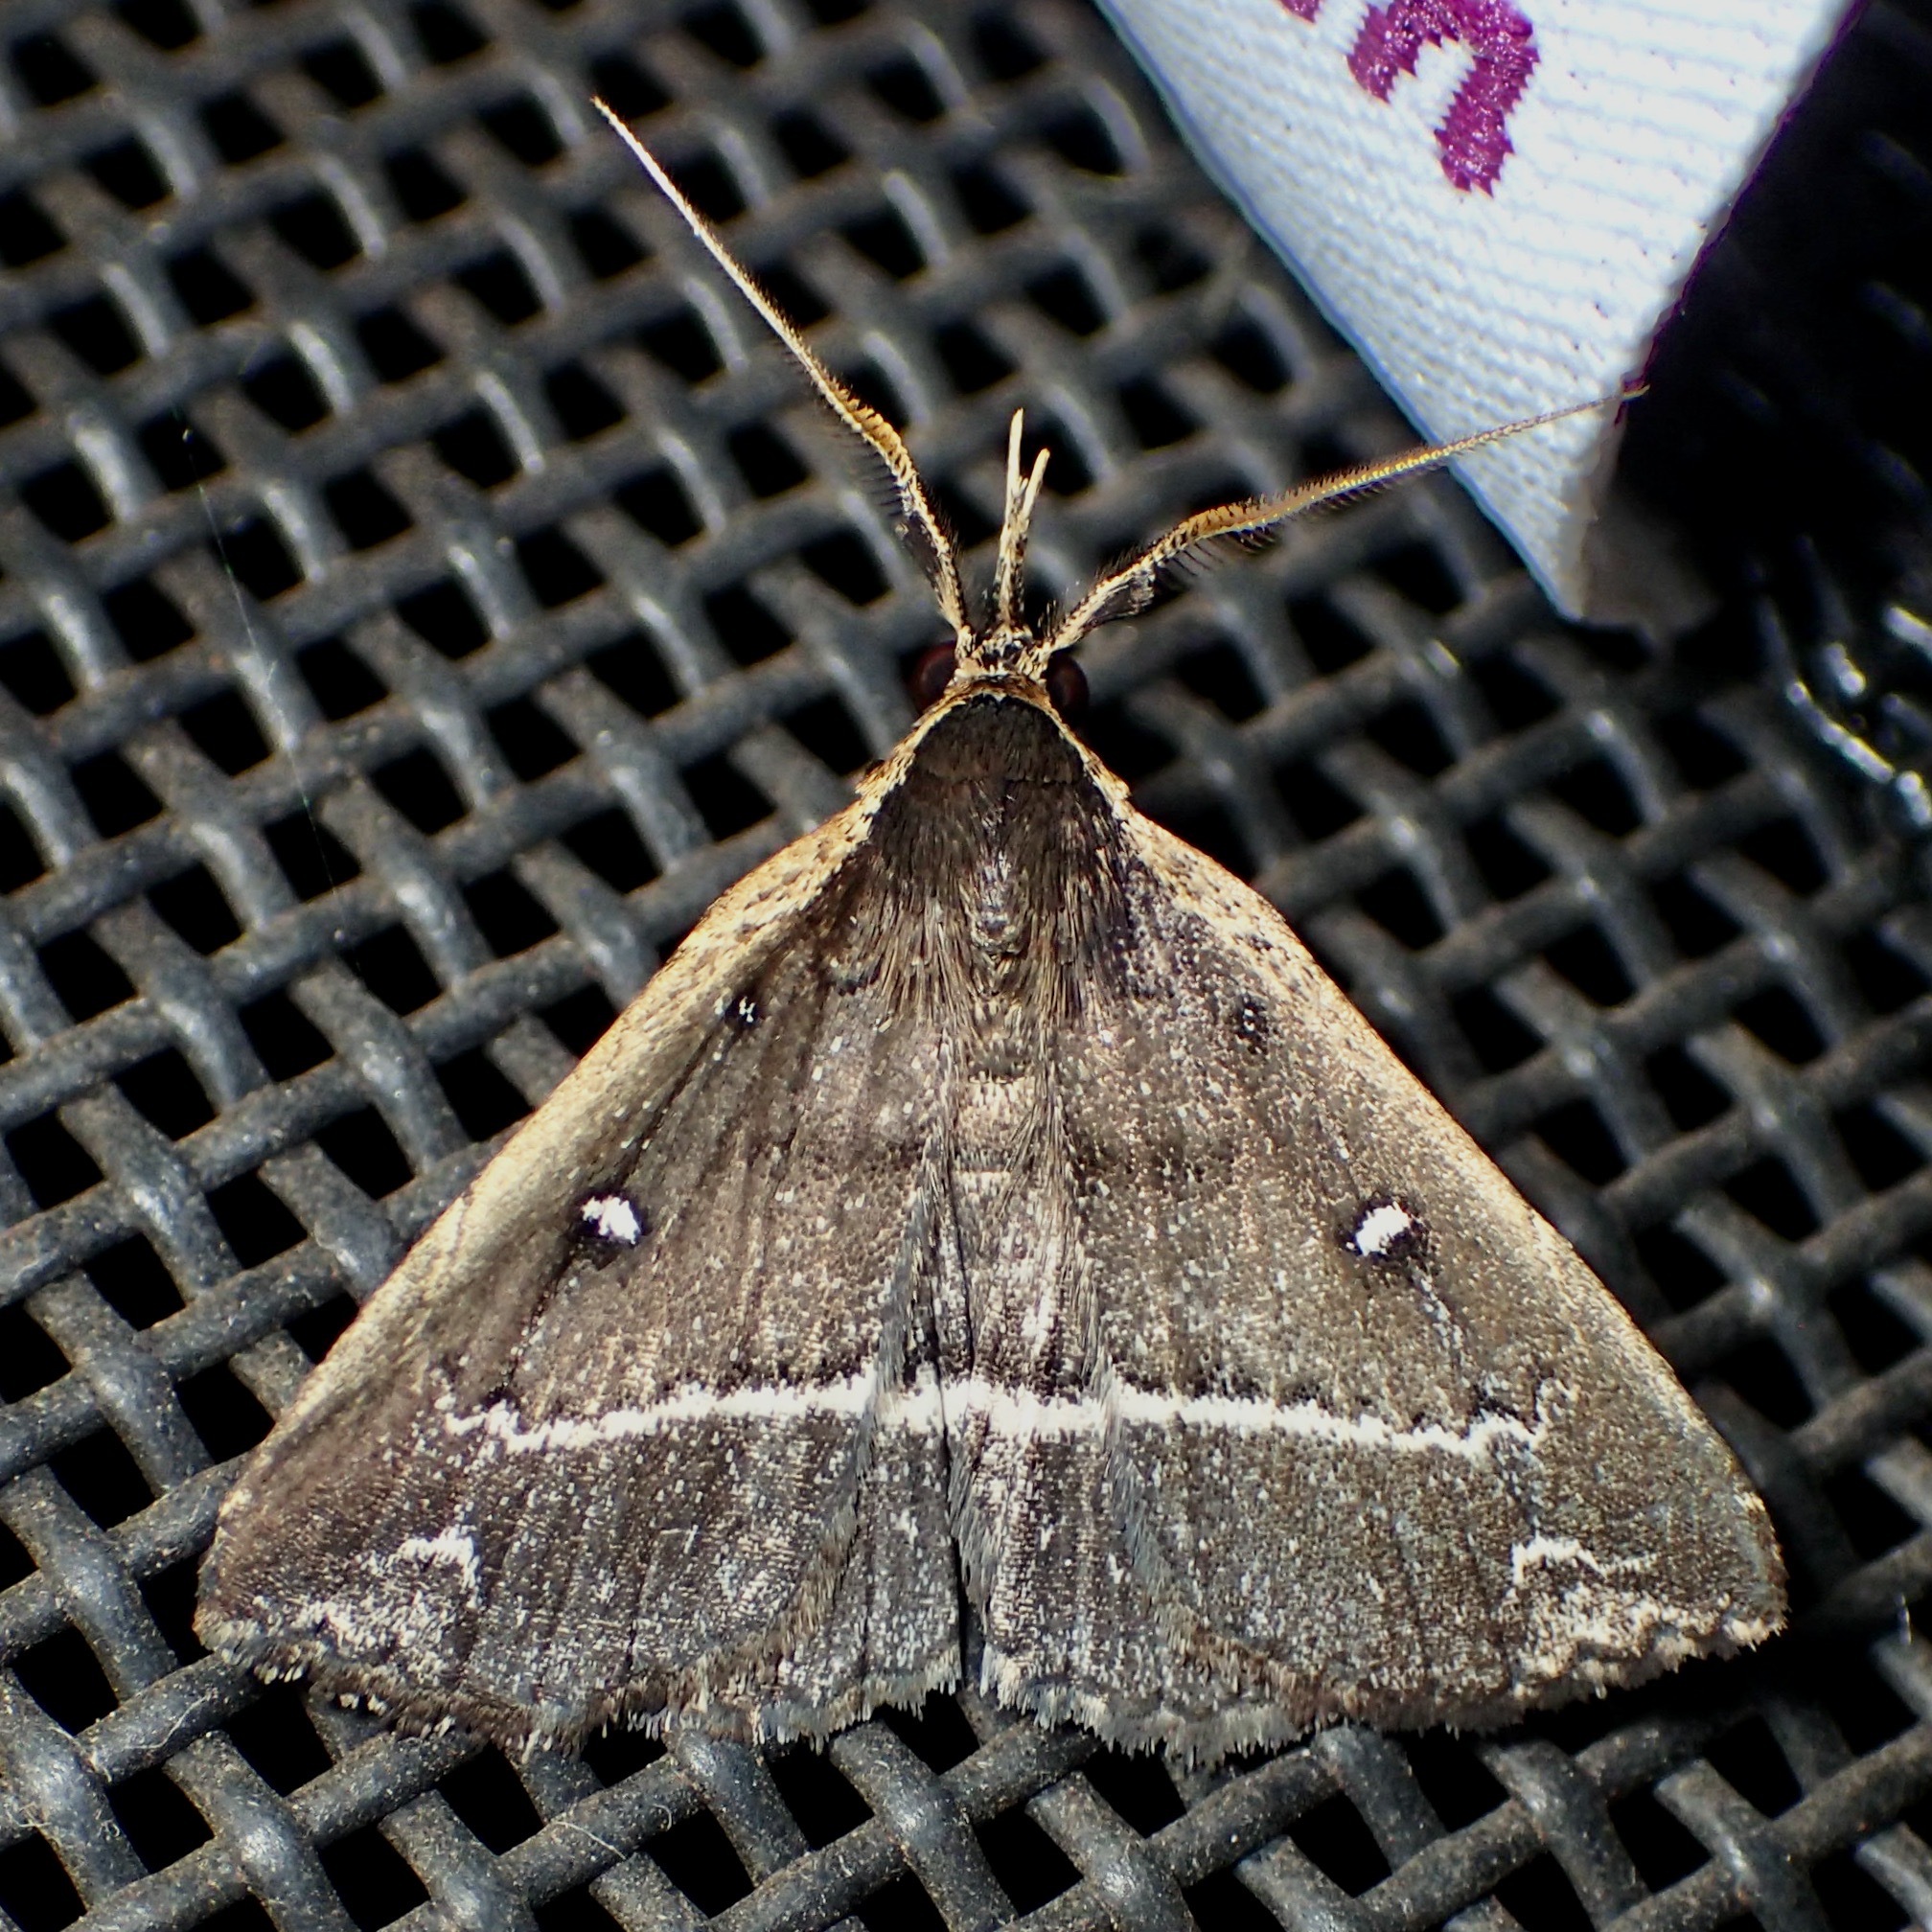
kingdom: Animalia
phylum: Arthropoda
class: Insecta
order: Lepidoptera
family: Erebidae
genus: Adrapsa
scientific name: Adrapsa ablualis
